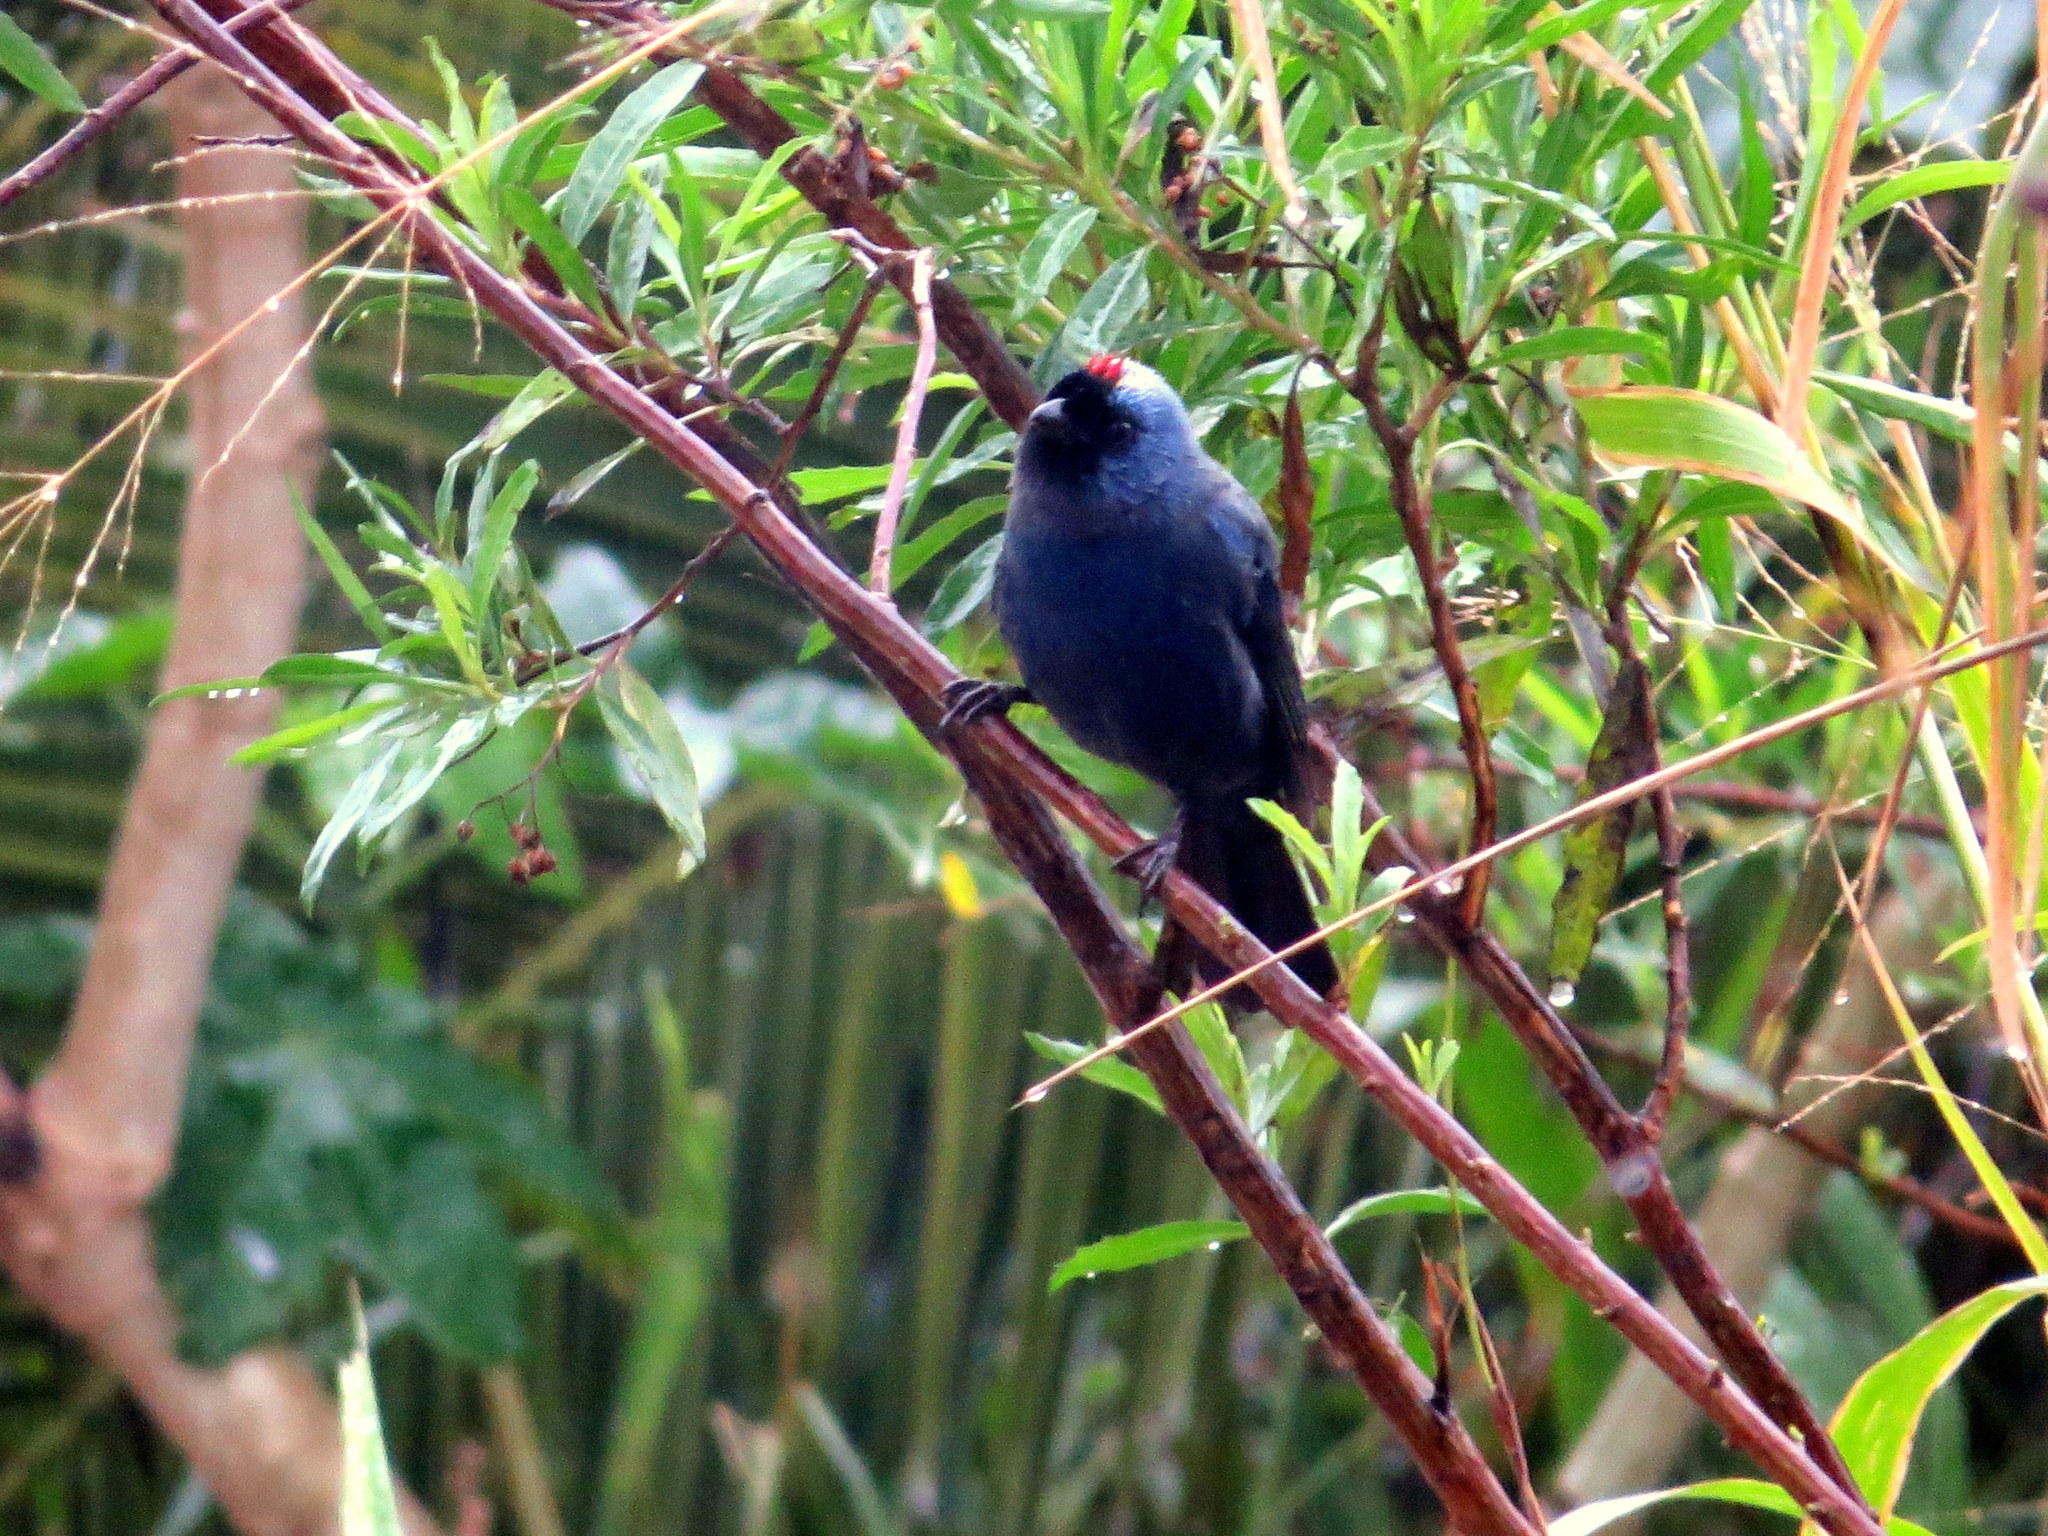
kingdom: Animalia
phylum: Chordata
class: Aves
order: Passeriformes
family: Thraupidae
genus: Stephanophorus
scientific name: Stephanophorus diadematus
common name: Diademed tanager
